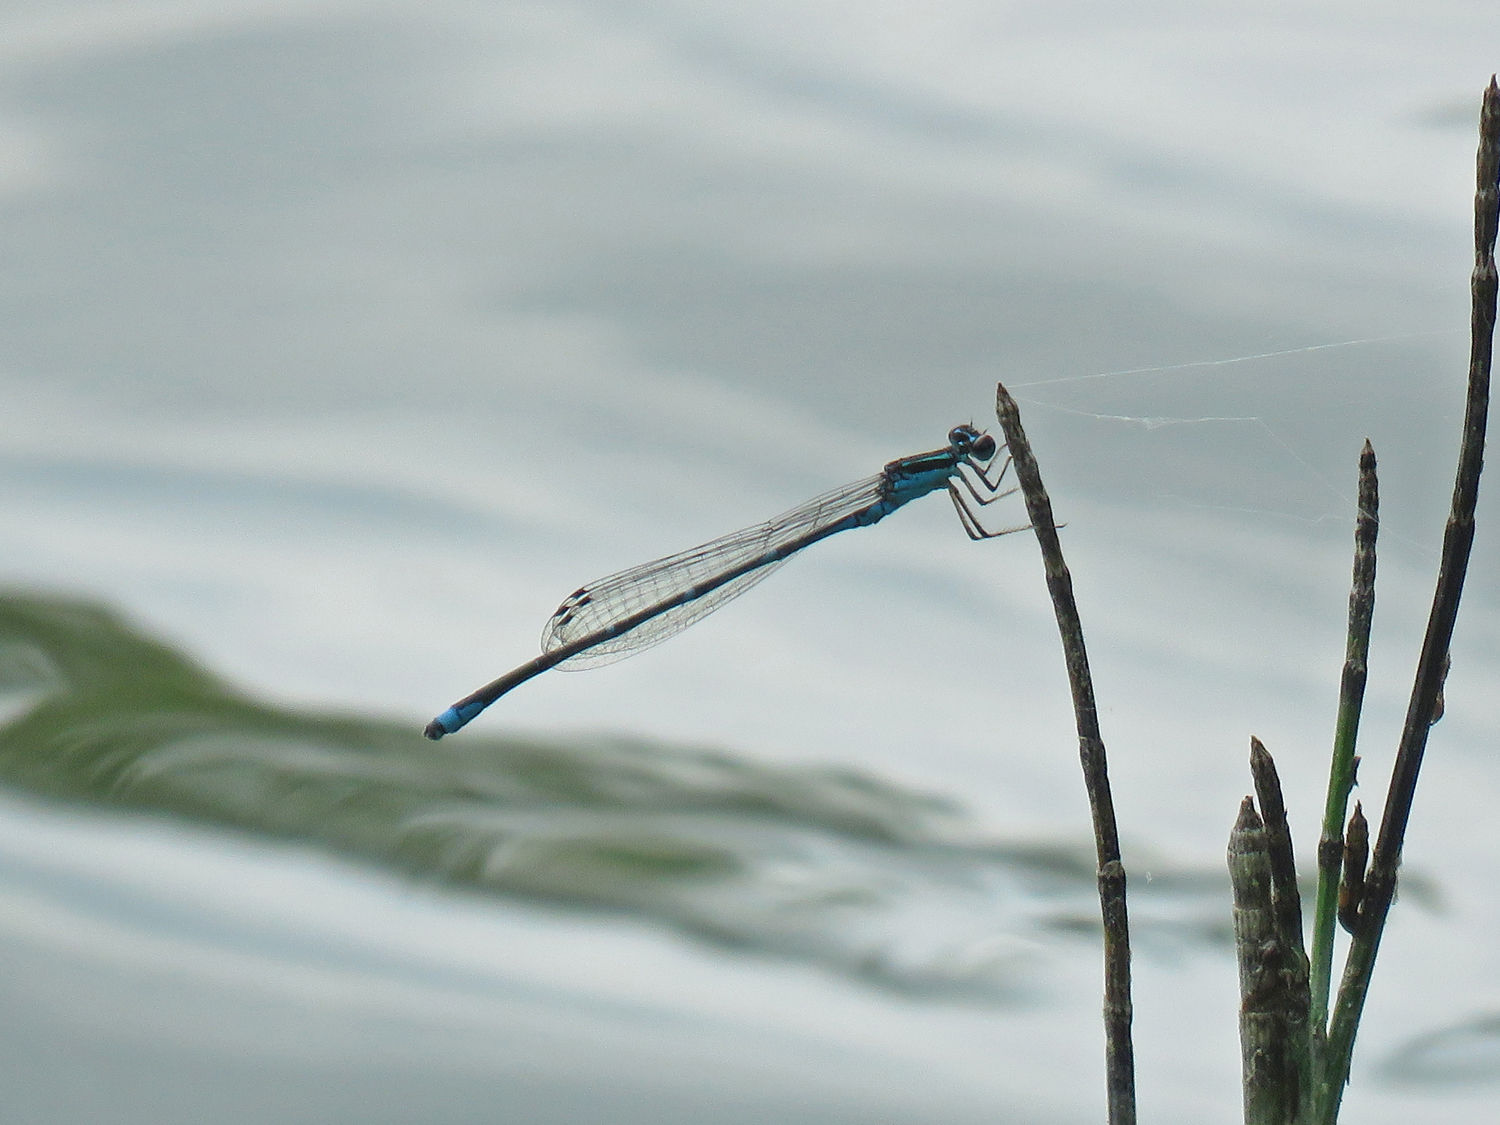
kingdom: Animalia
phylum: Arthropoda
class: Insecta
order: Odonata
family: Coenagrionidae
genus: Enallagma
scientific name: Enallagma exsulans
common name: Stream bluet
